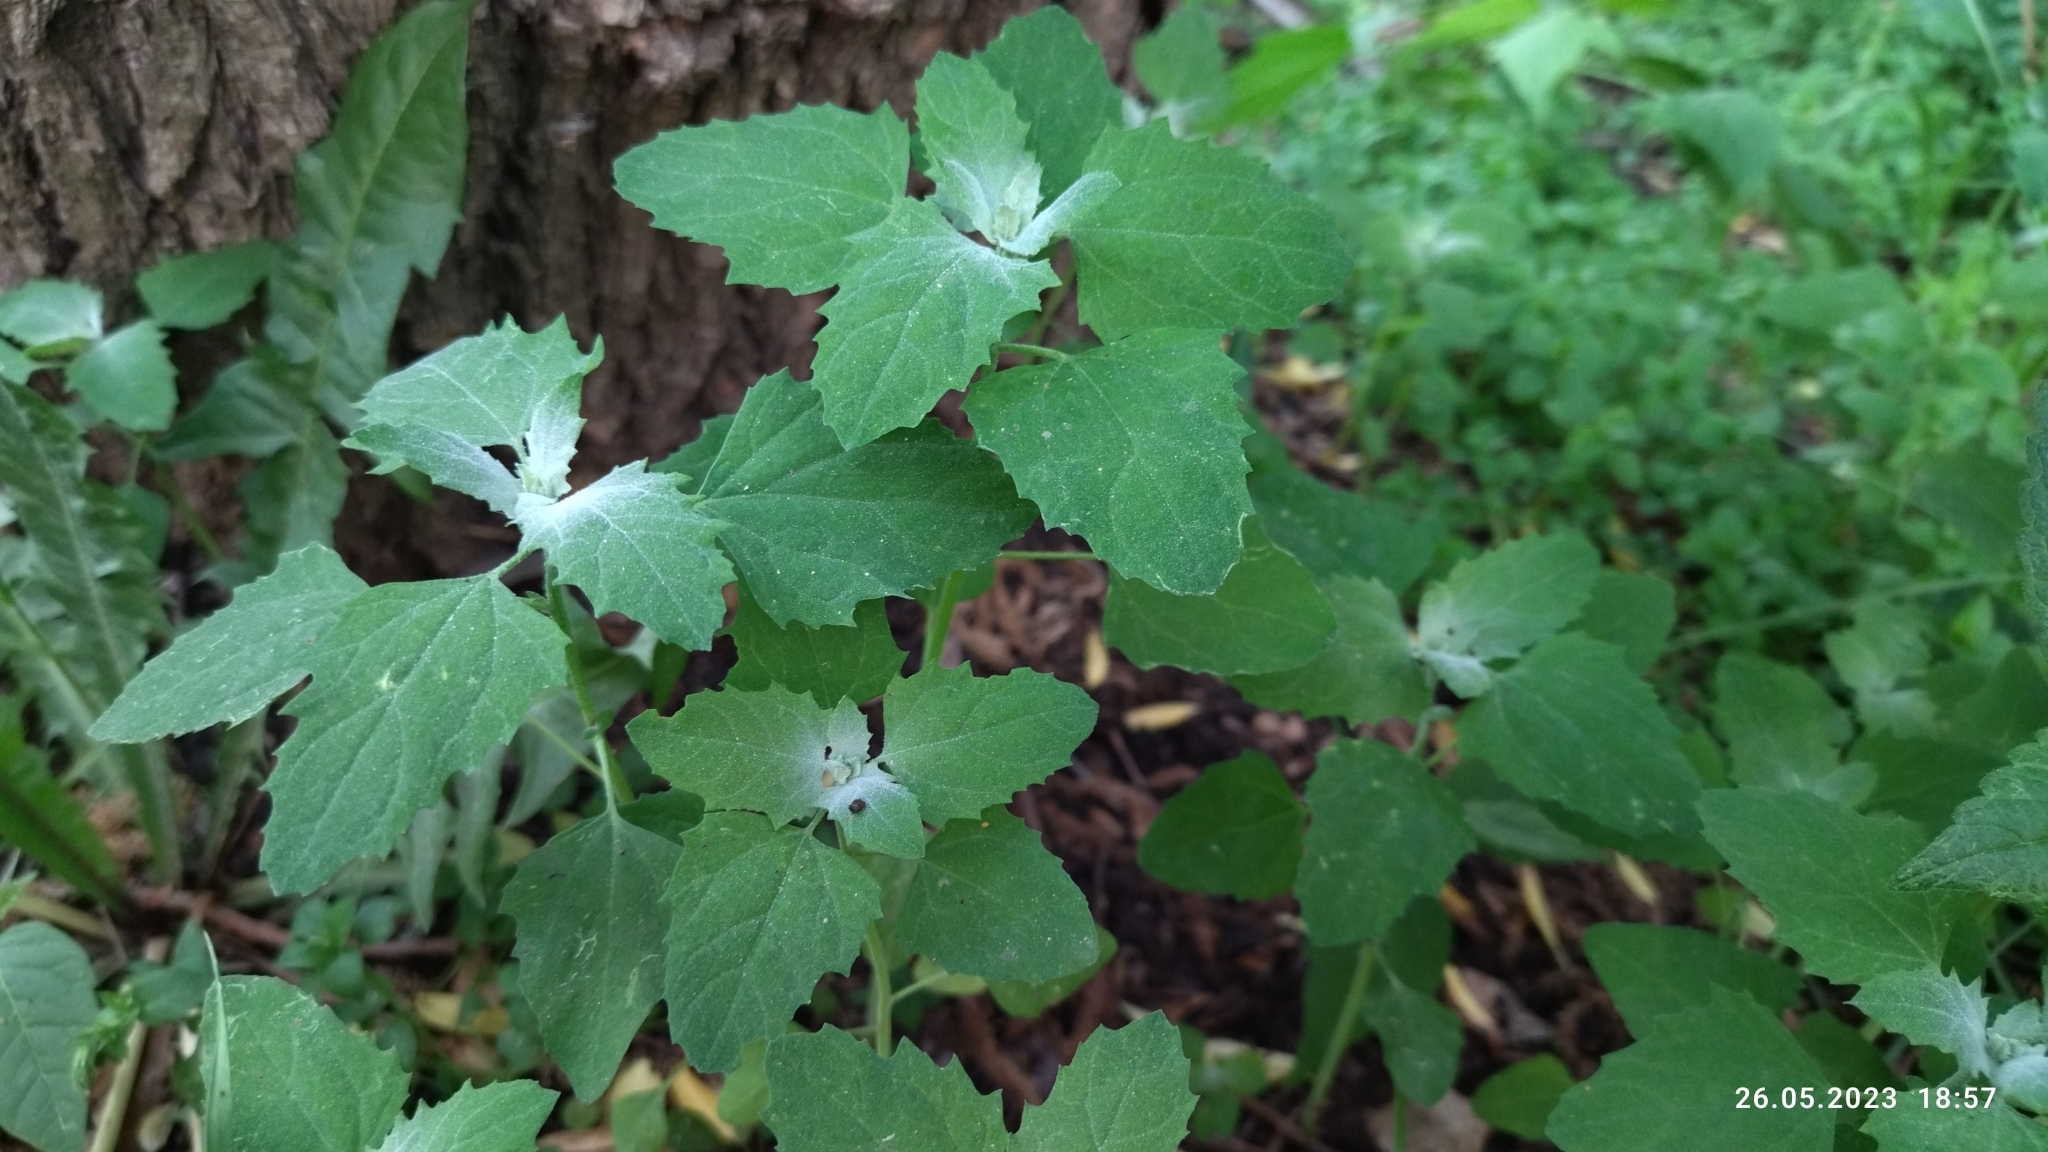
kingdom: Plantae
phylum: Tracheophyta
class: Magnoliopsida
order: Caryophyllales
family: Amaranthaceae
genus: Chenopodium
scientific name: Chenopodium album
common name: Fat-hen
